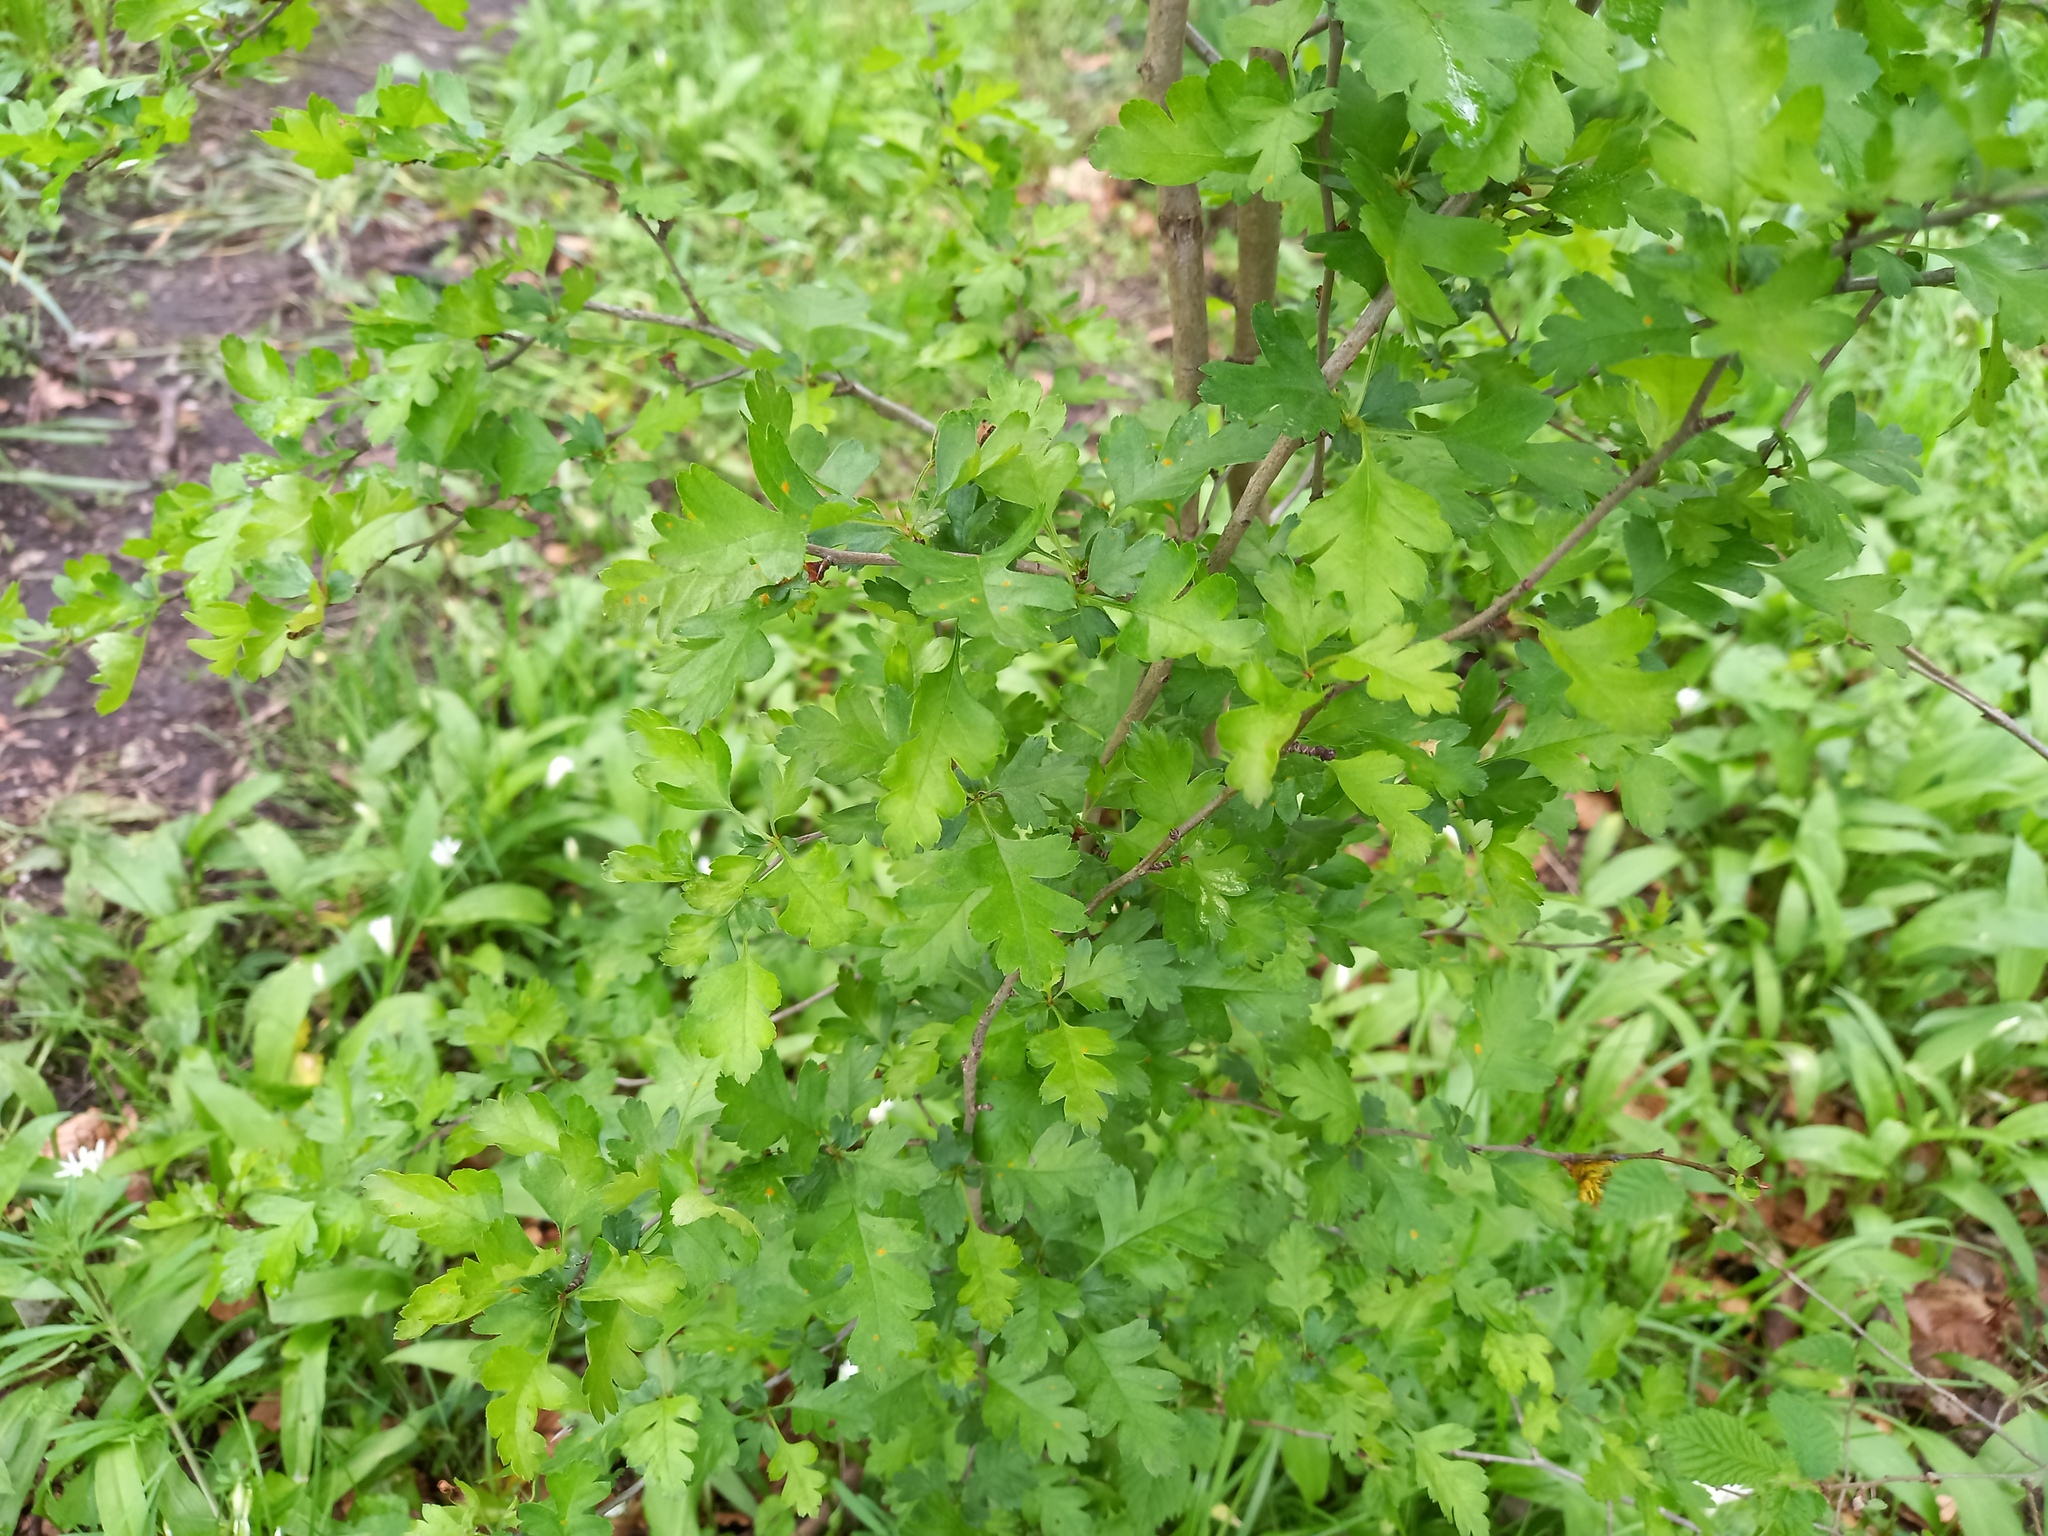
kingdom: Plantae
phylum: Tracheophyta
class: Magnoliopsida
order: Rosales
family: Rosaceae
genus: Crataegus
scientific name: Crataegus monogyna
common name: Hawthorn
